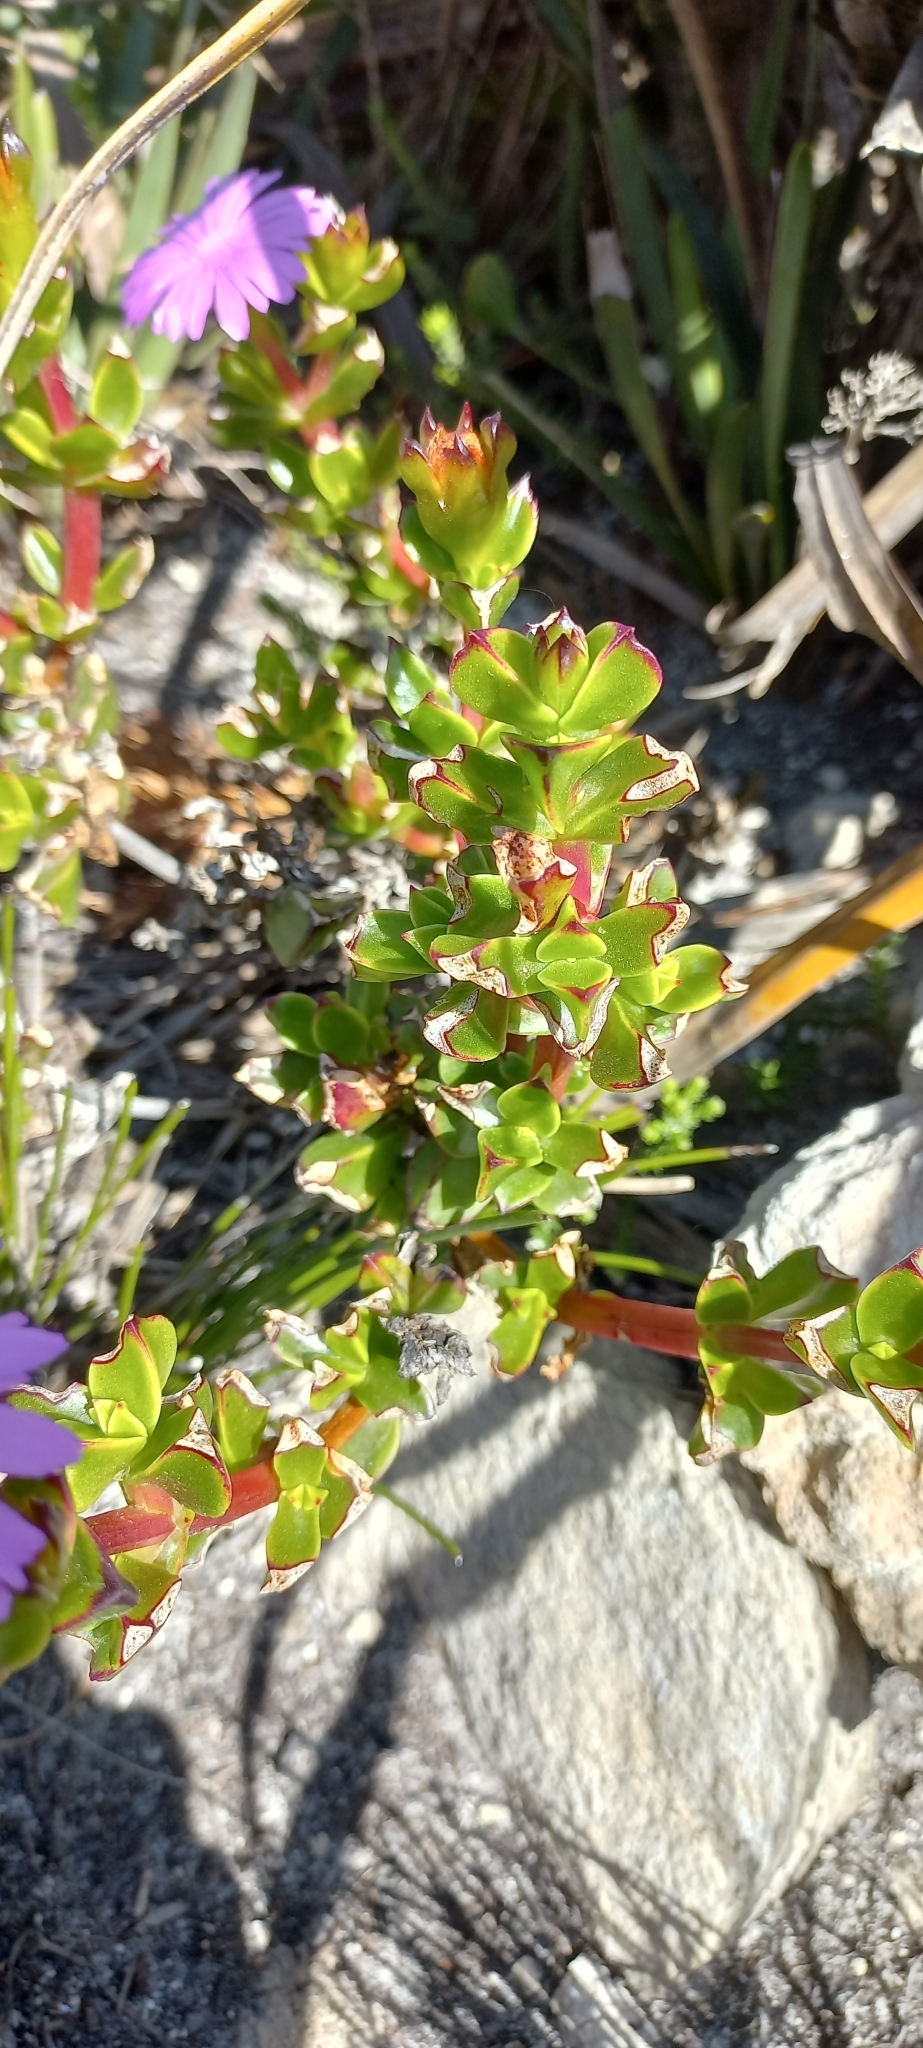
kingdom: Plantae
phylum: Tracheophyta
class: Magnoliopsida
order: Caryophyllales
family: Aizoaceae
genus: Erepsia
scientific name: Erepsia inclaudens
